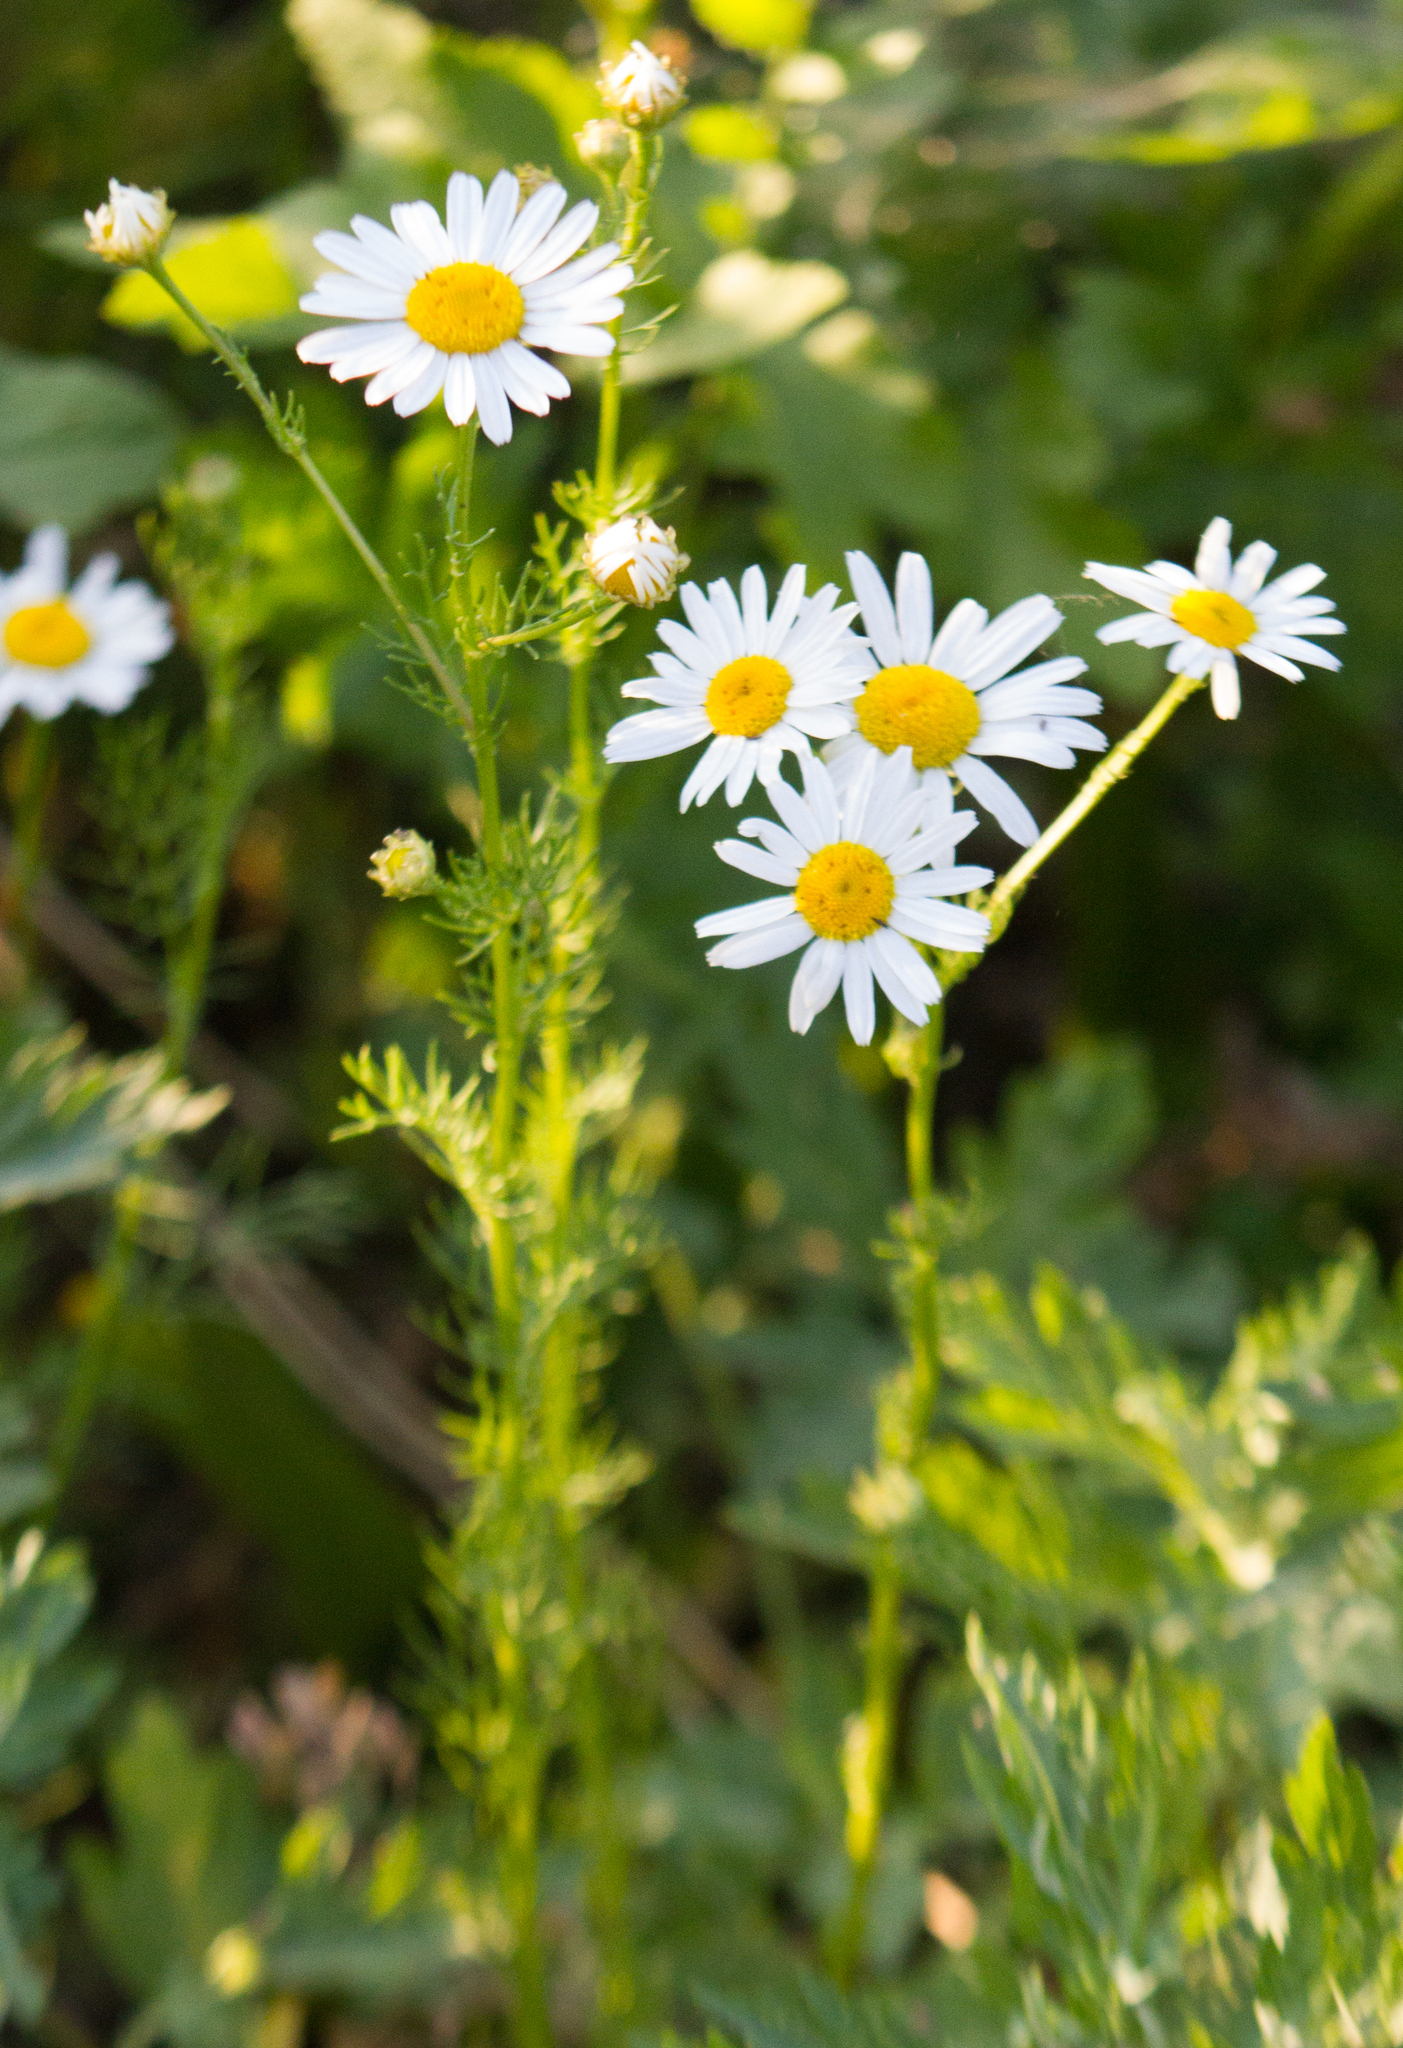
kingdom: Plantae
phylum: Tracheophyta
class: Magnoliopsida
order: Asterales
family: Asteraceae
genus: Tripleurospermum
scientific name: Tripleurospermum inodorum
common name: Scentless mayweed
